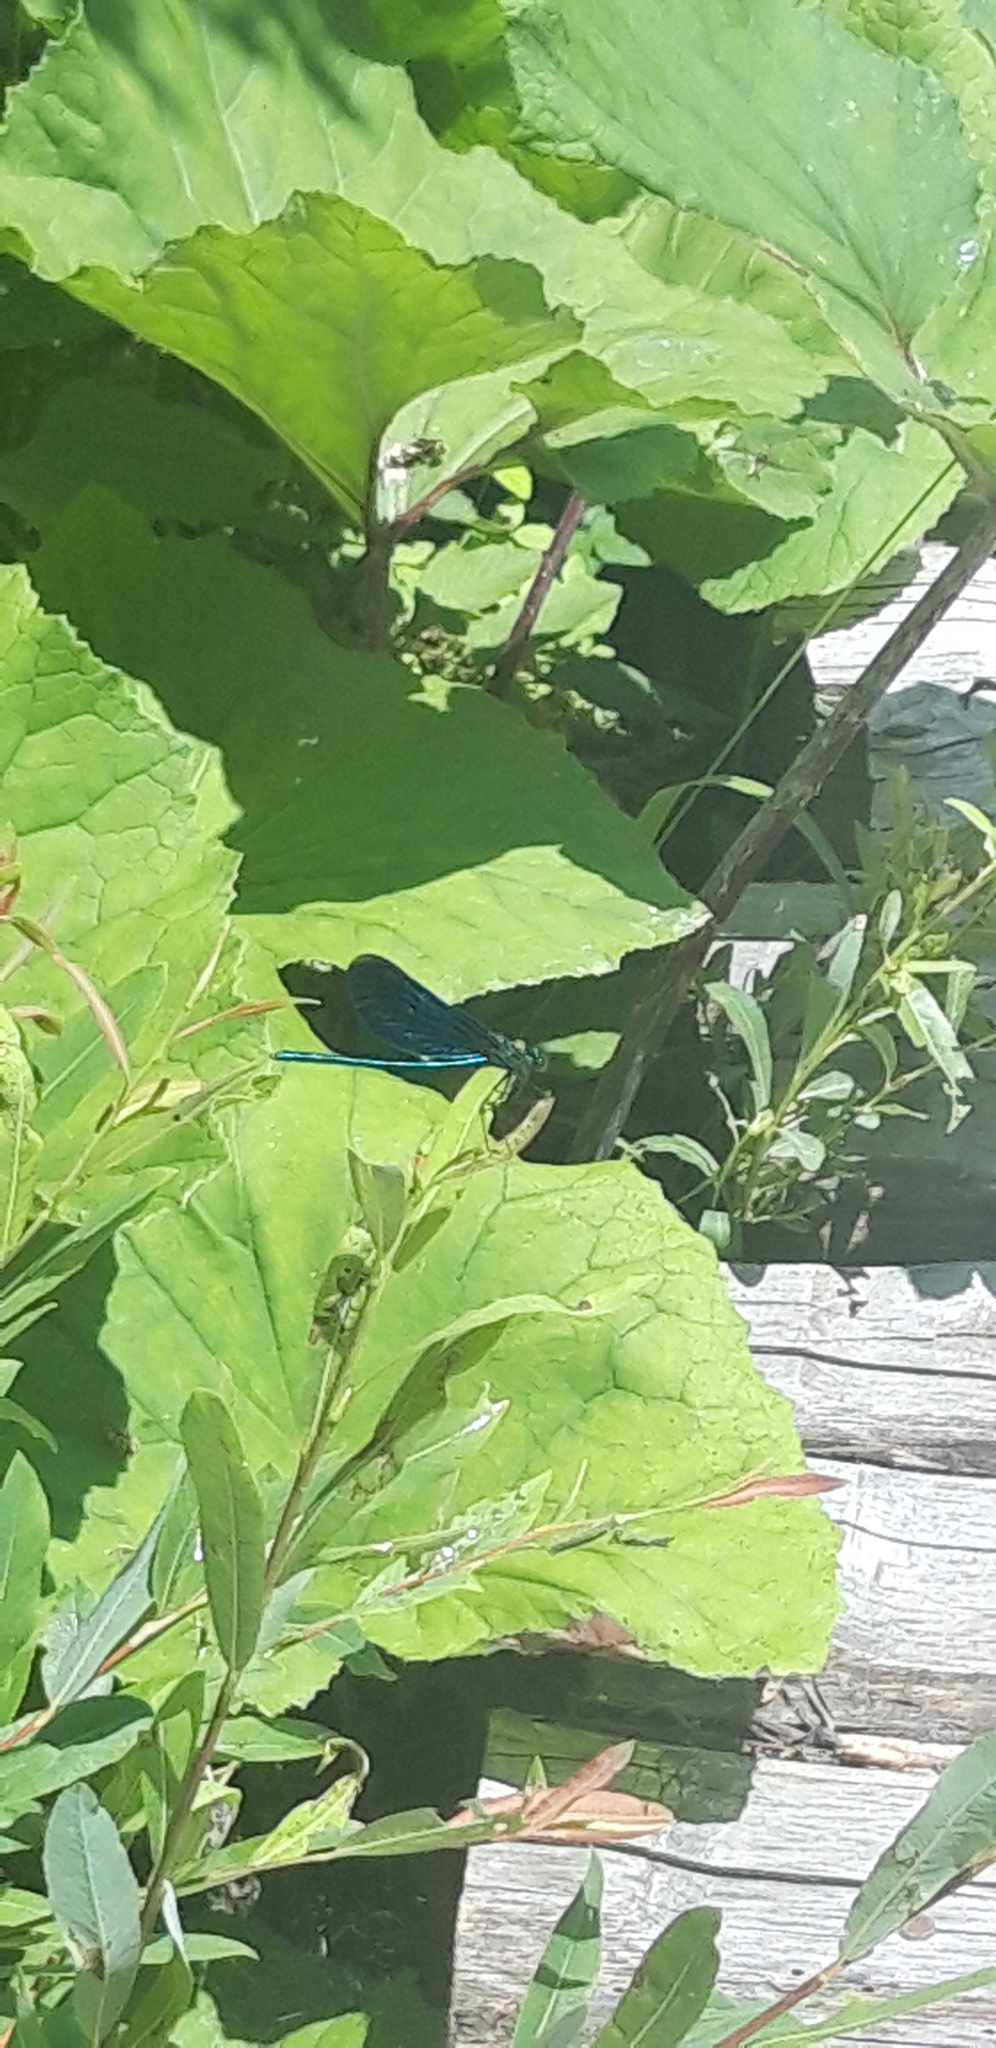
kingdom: Animalia
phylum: Arthropoda
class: Insecta
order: Odonata
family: Calopterygidae
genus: Calopteryx
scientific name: Calopteryx virgo
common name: Beautiful demoiselle
